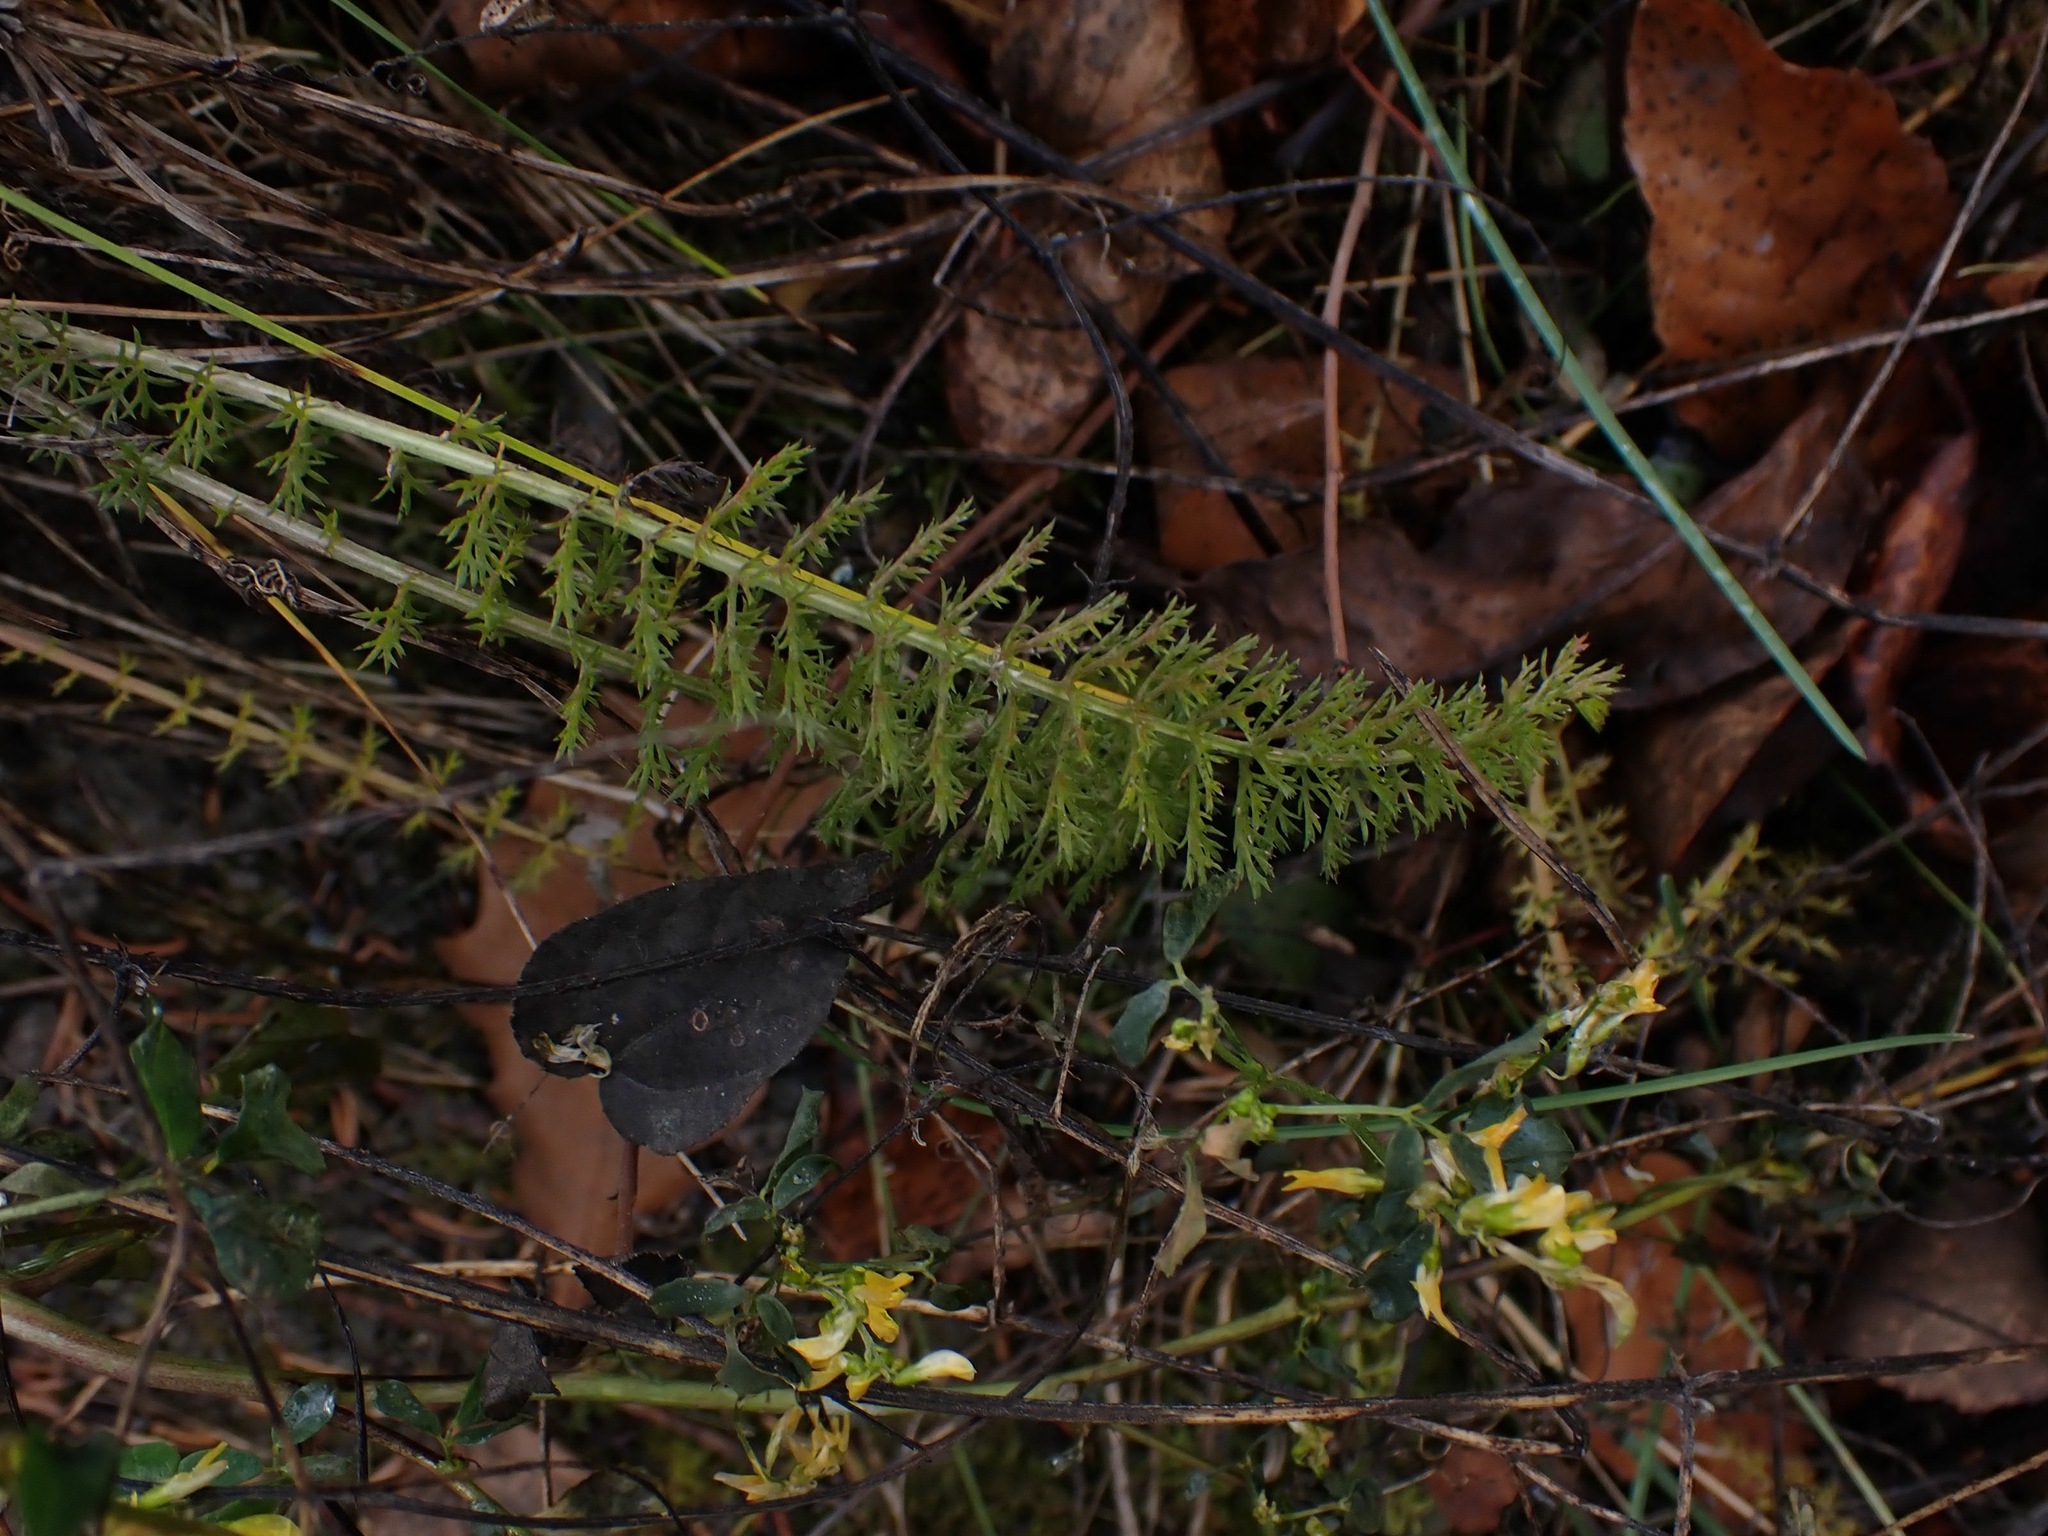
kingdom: Plantae
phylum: Tracheophyta
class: Magnoliopsida
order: Asterales
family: Asteraceae
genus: Achillea
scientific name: Achillea millefolium
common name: Yarrow
